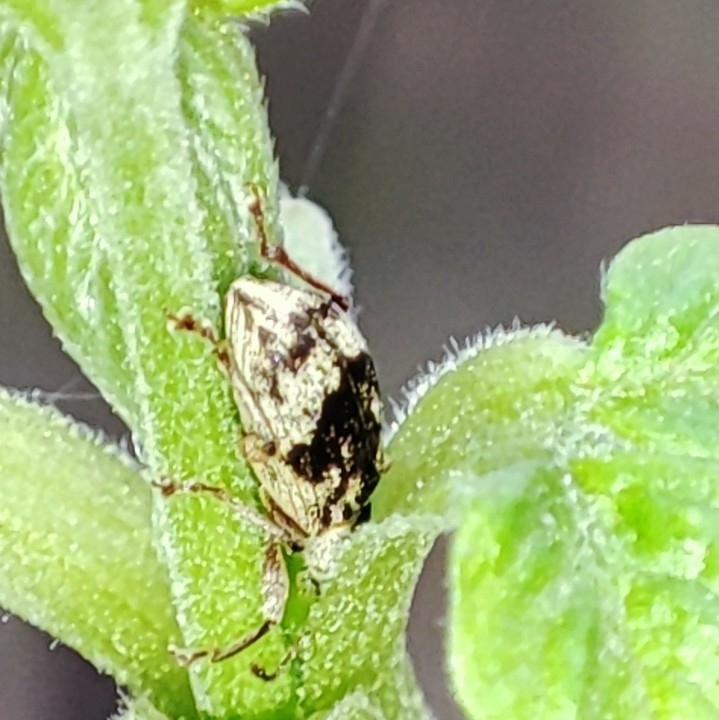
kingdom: Animalia
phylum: Arthropoda
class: Insecta
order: Coleoptera
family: Curculionidae
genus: Polydrusus
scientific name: Polydrusus tereticollis
